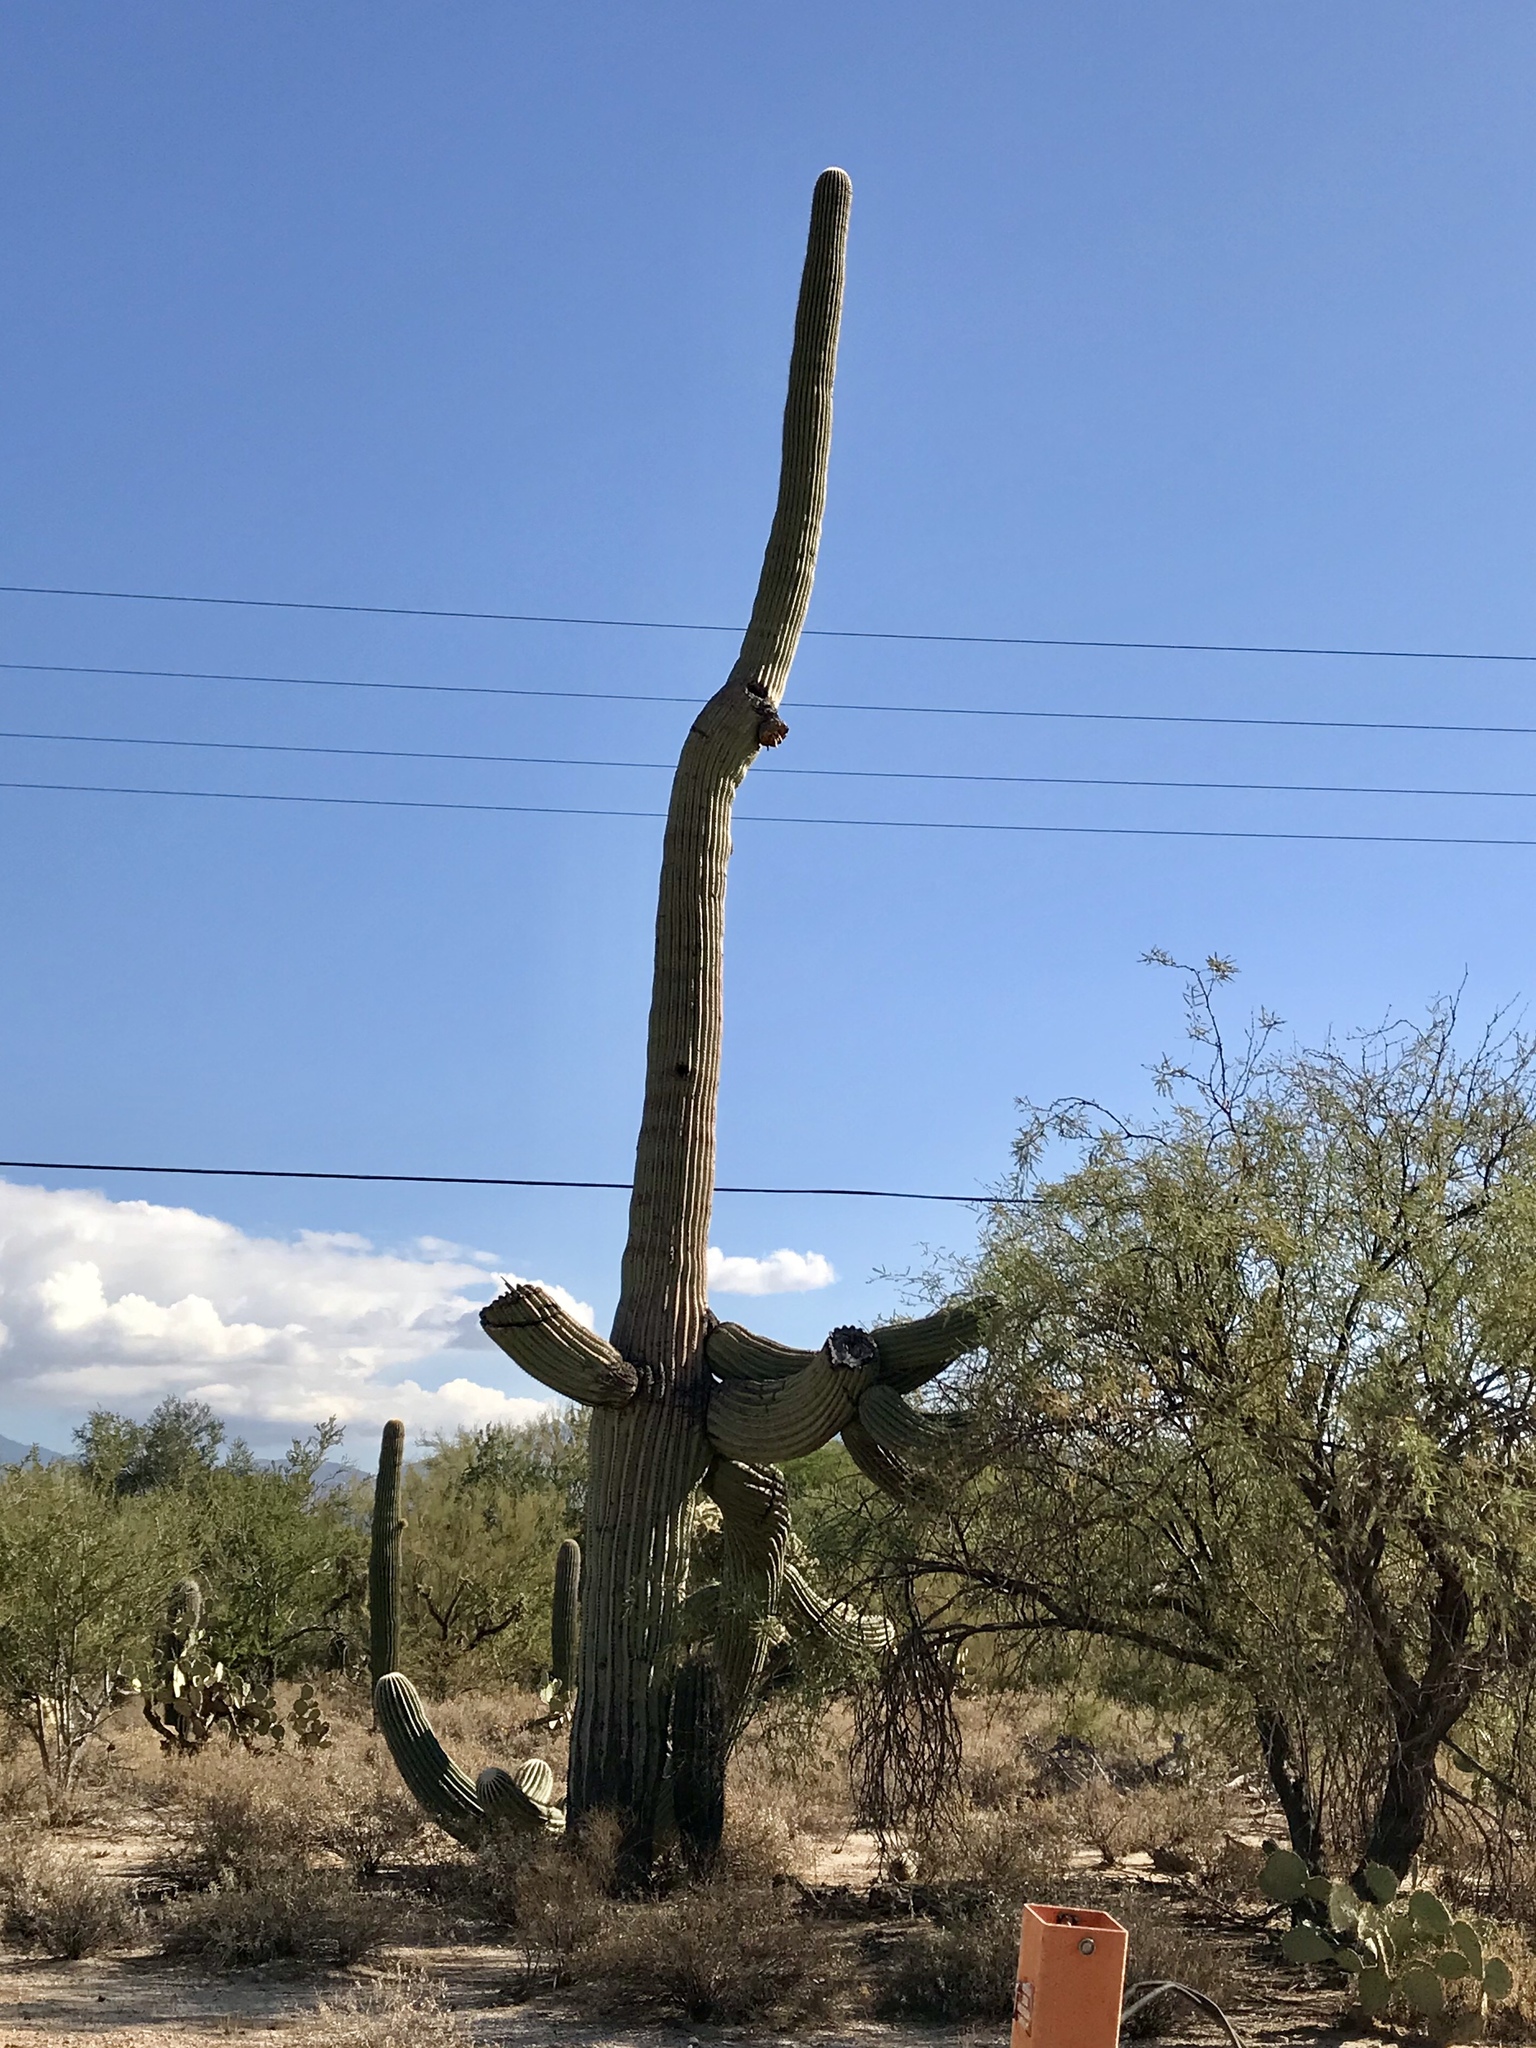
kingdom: Plantae
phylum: Tracheophyta
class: Magnoliopsida
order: Caryophyllales
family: Cactaceae
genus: Carnegiea
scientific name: Carnegiea gigantea
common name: Saguaro
